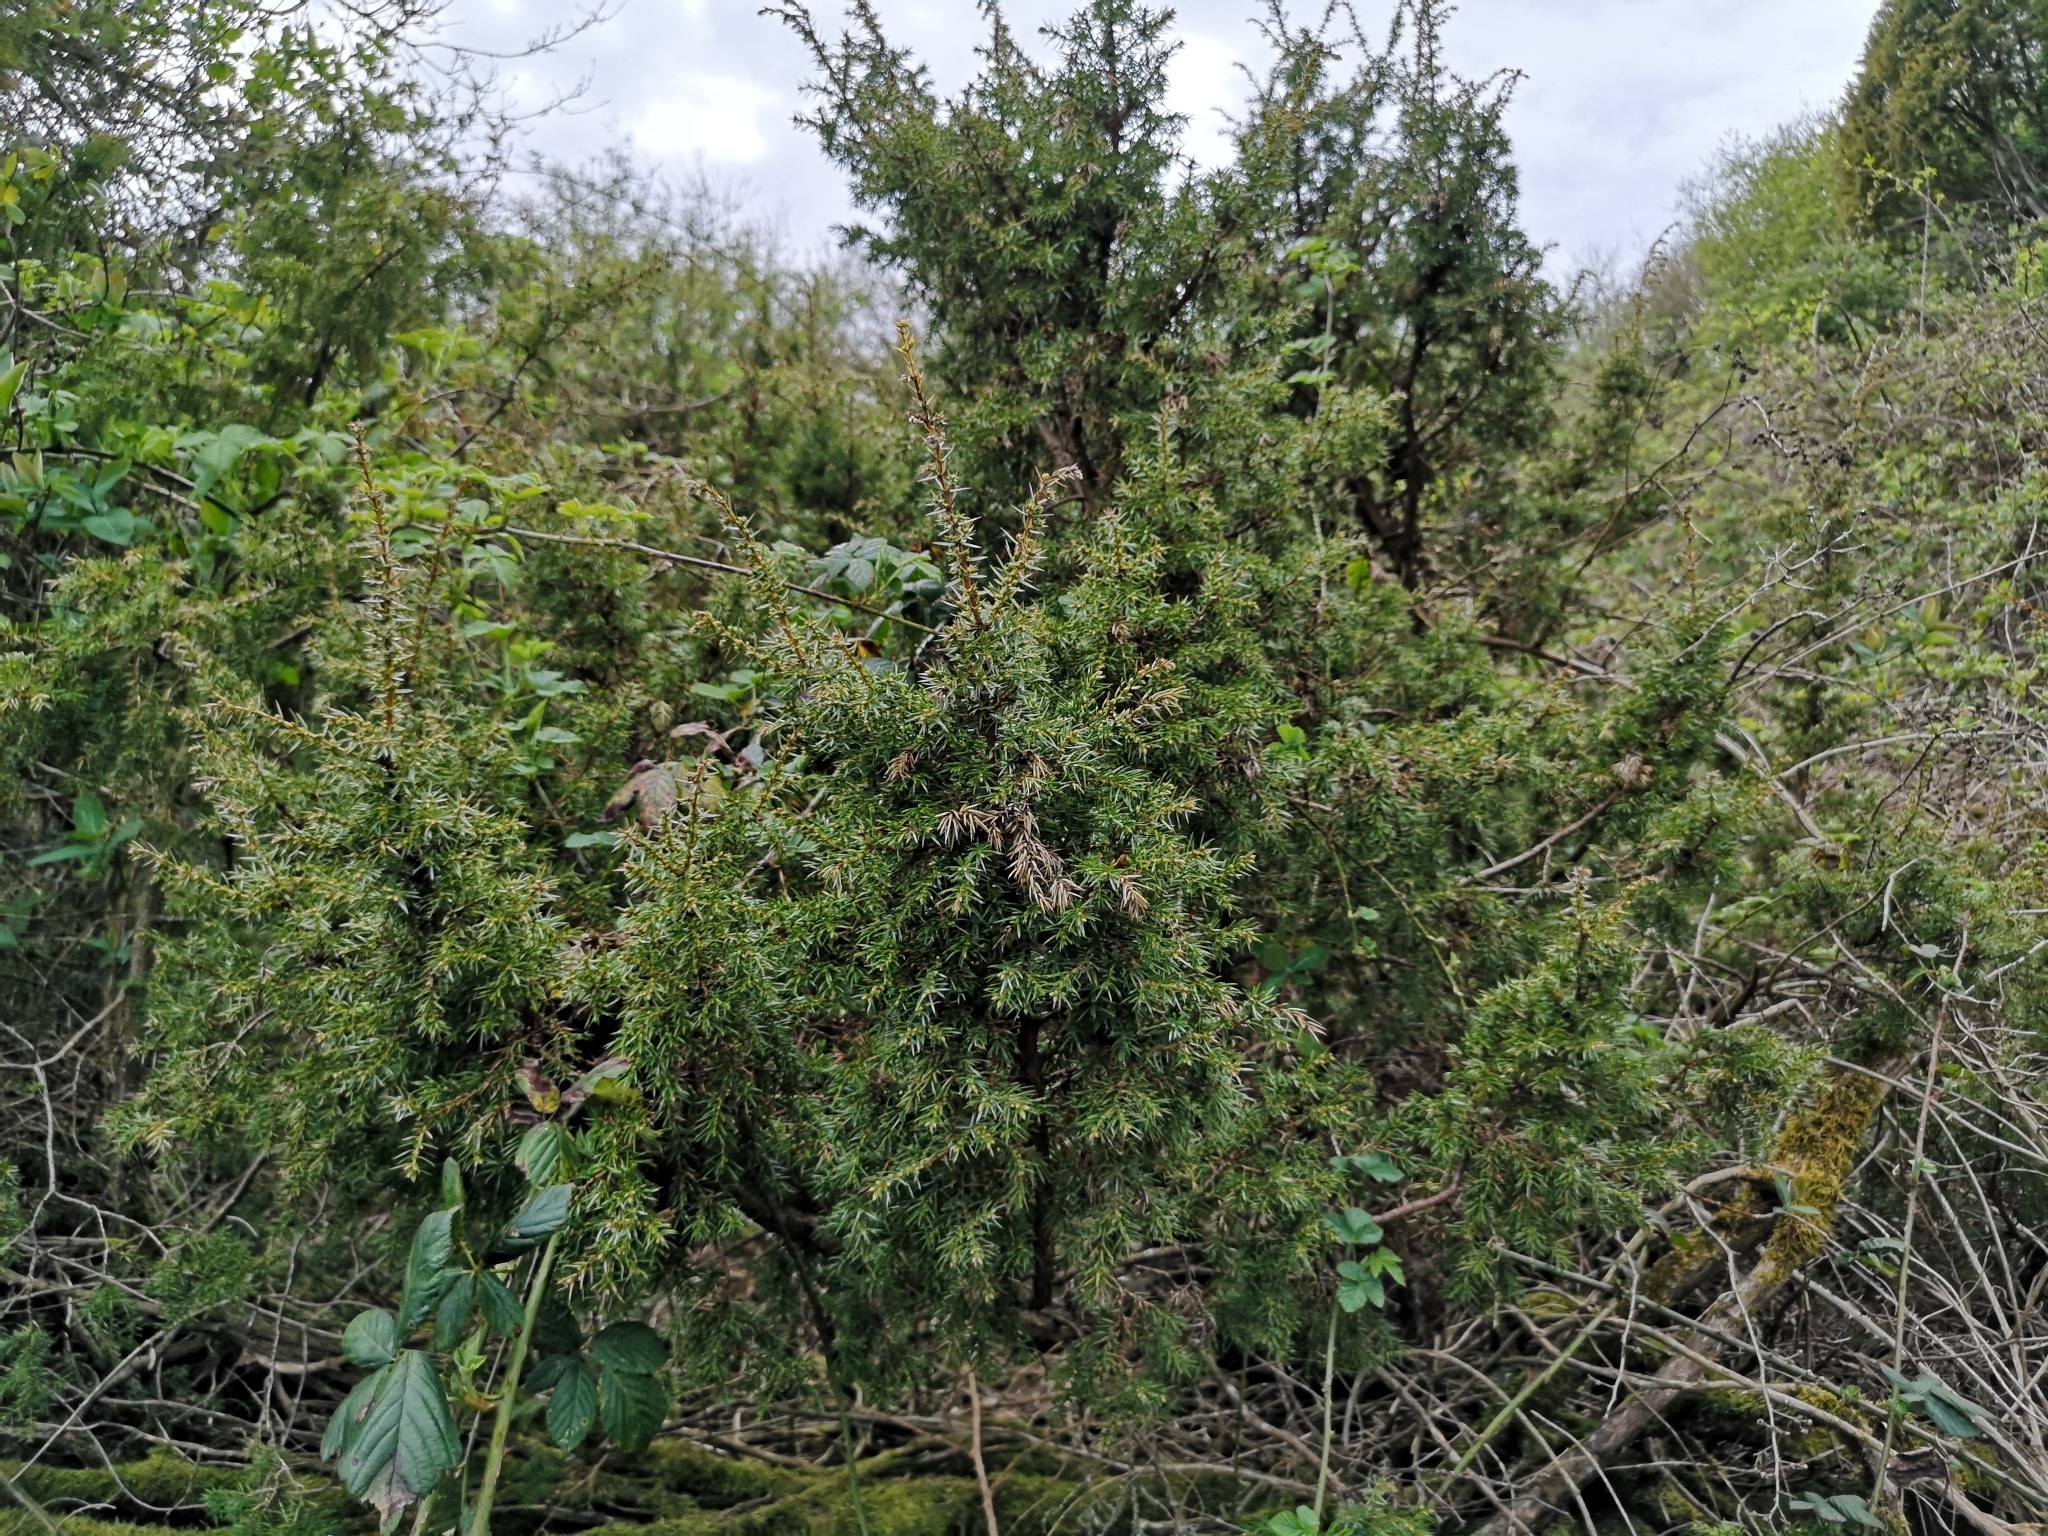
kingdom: Plantae
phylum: Tracheophyta
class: Pinopsida
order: Pinales
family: Cupressaceae
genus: Juniperus
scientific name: Juniperus communis
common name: Common juniper
